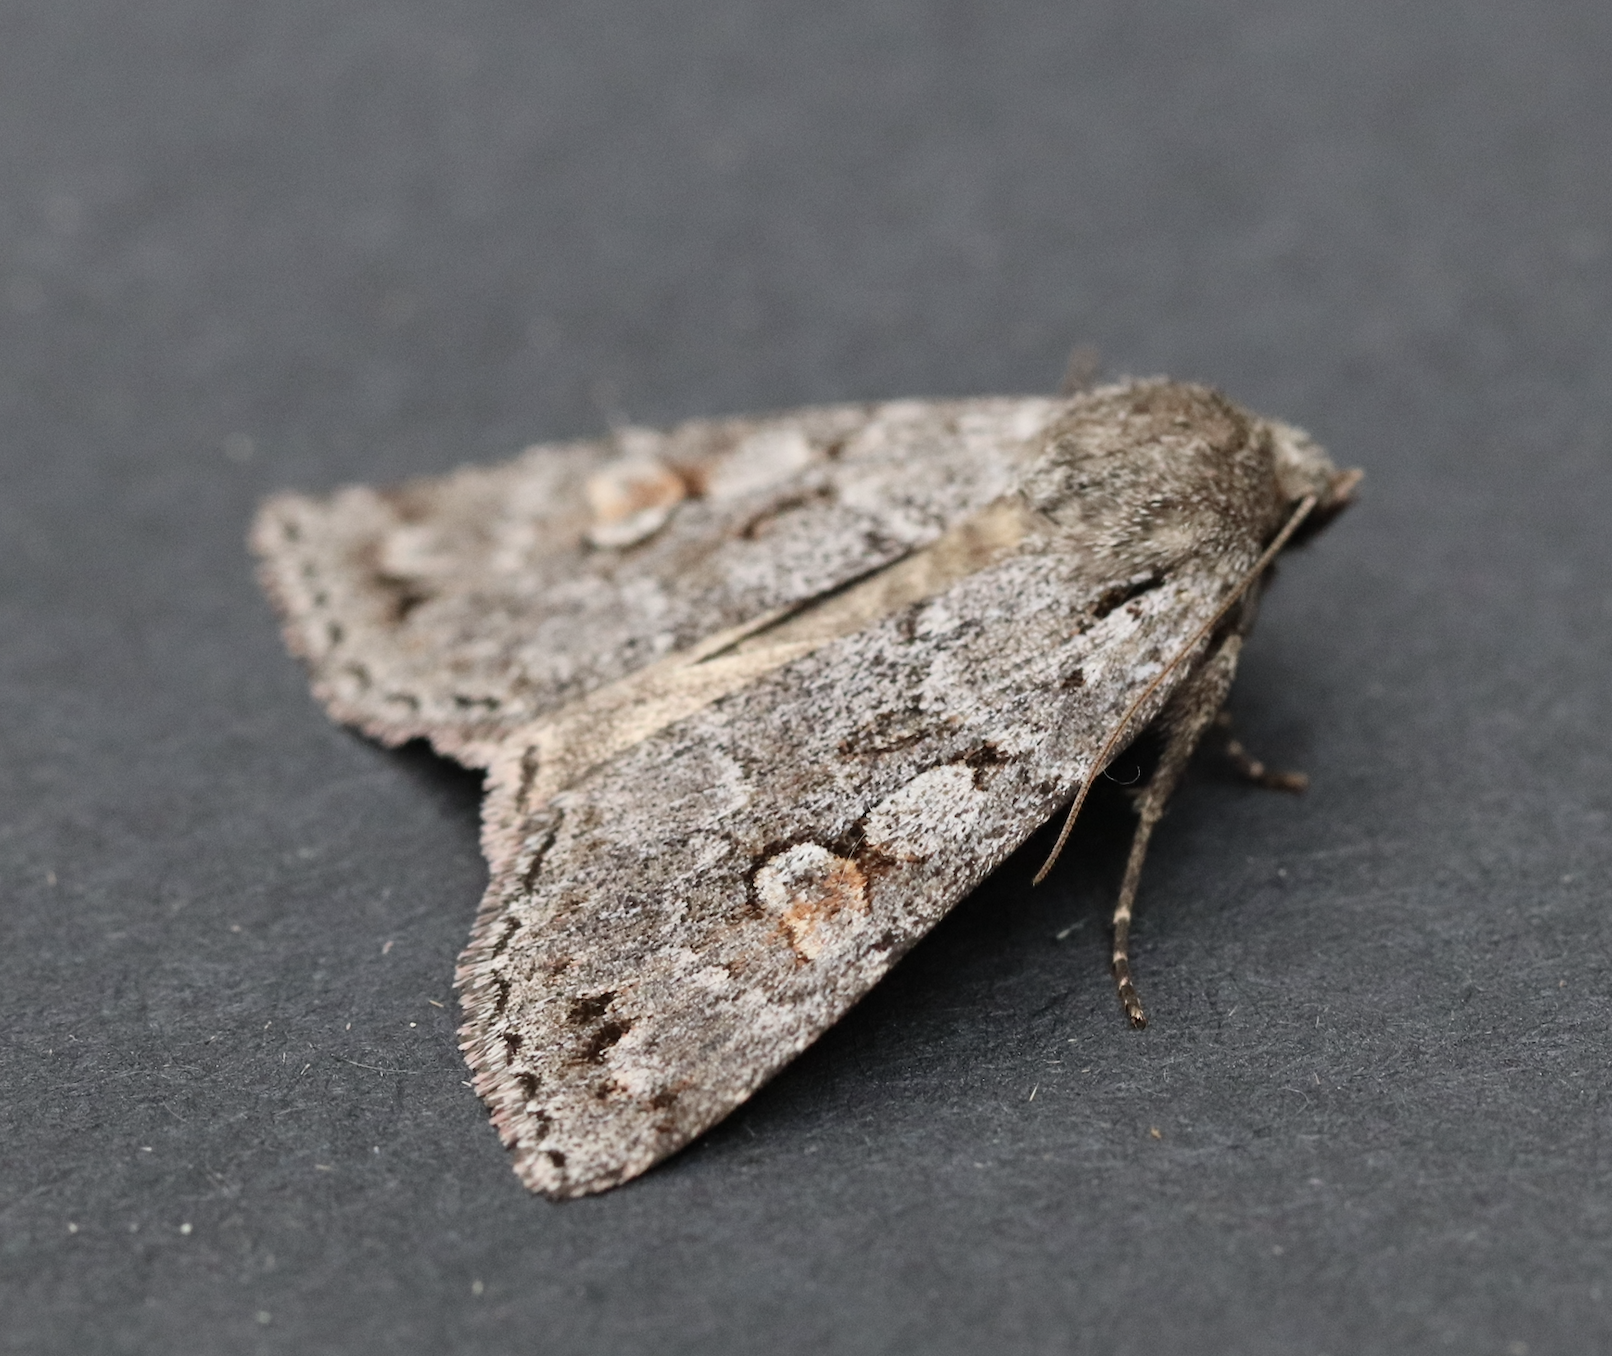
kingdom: Animalia
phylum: Arthropoda
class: Insecta
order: Lepidoptera
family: Noctuidae
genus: Xestia
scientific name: Xestia imperita
